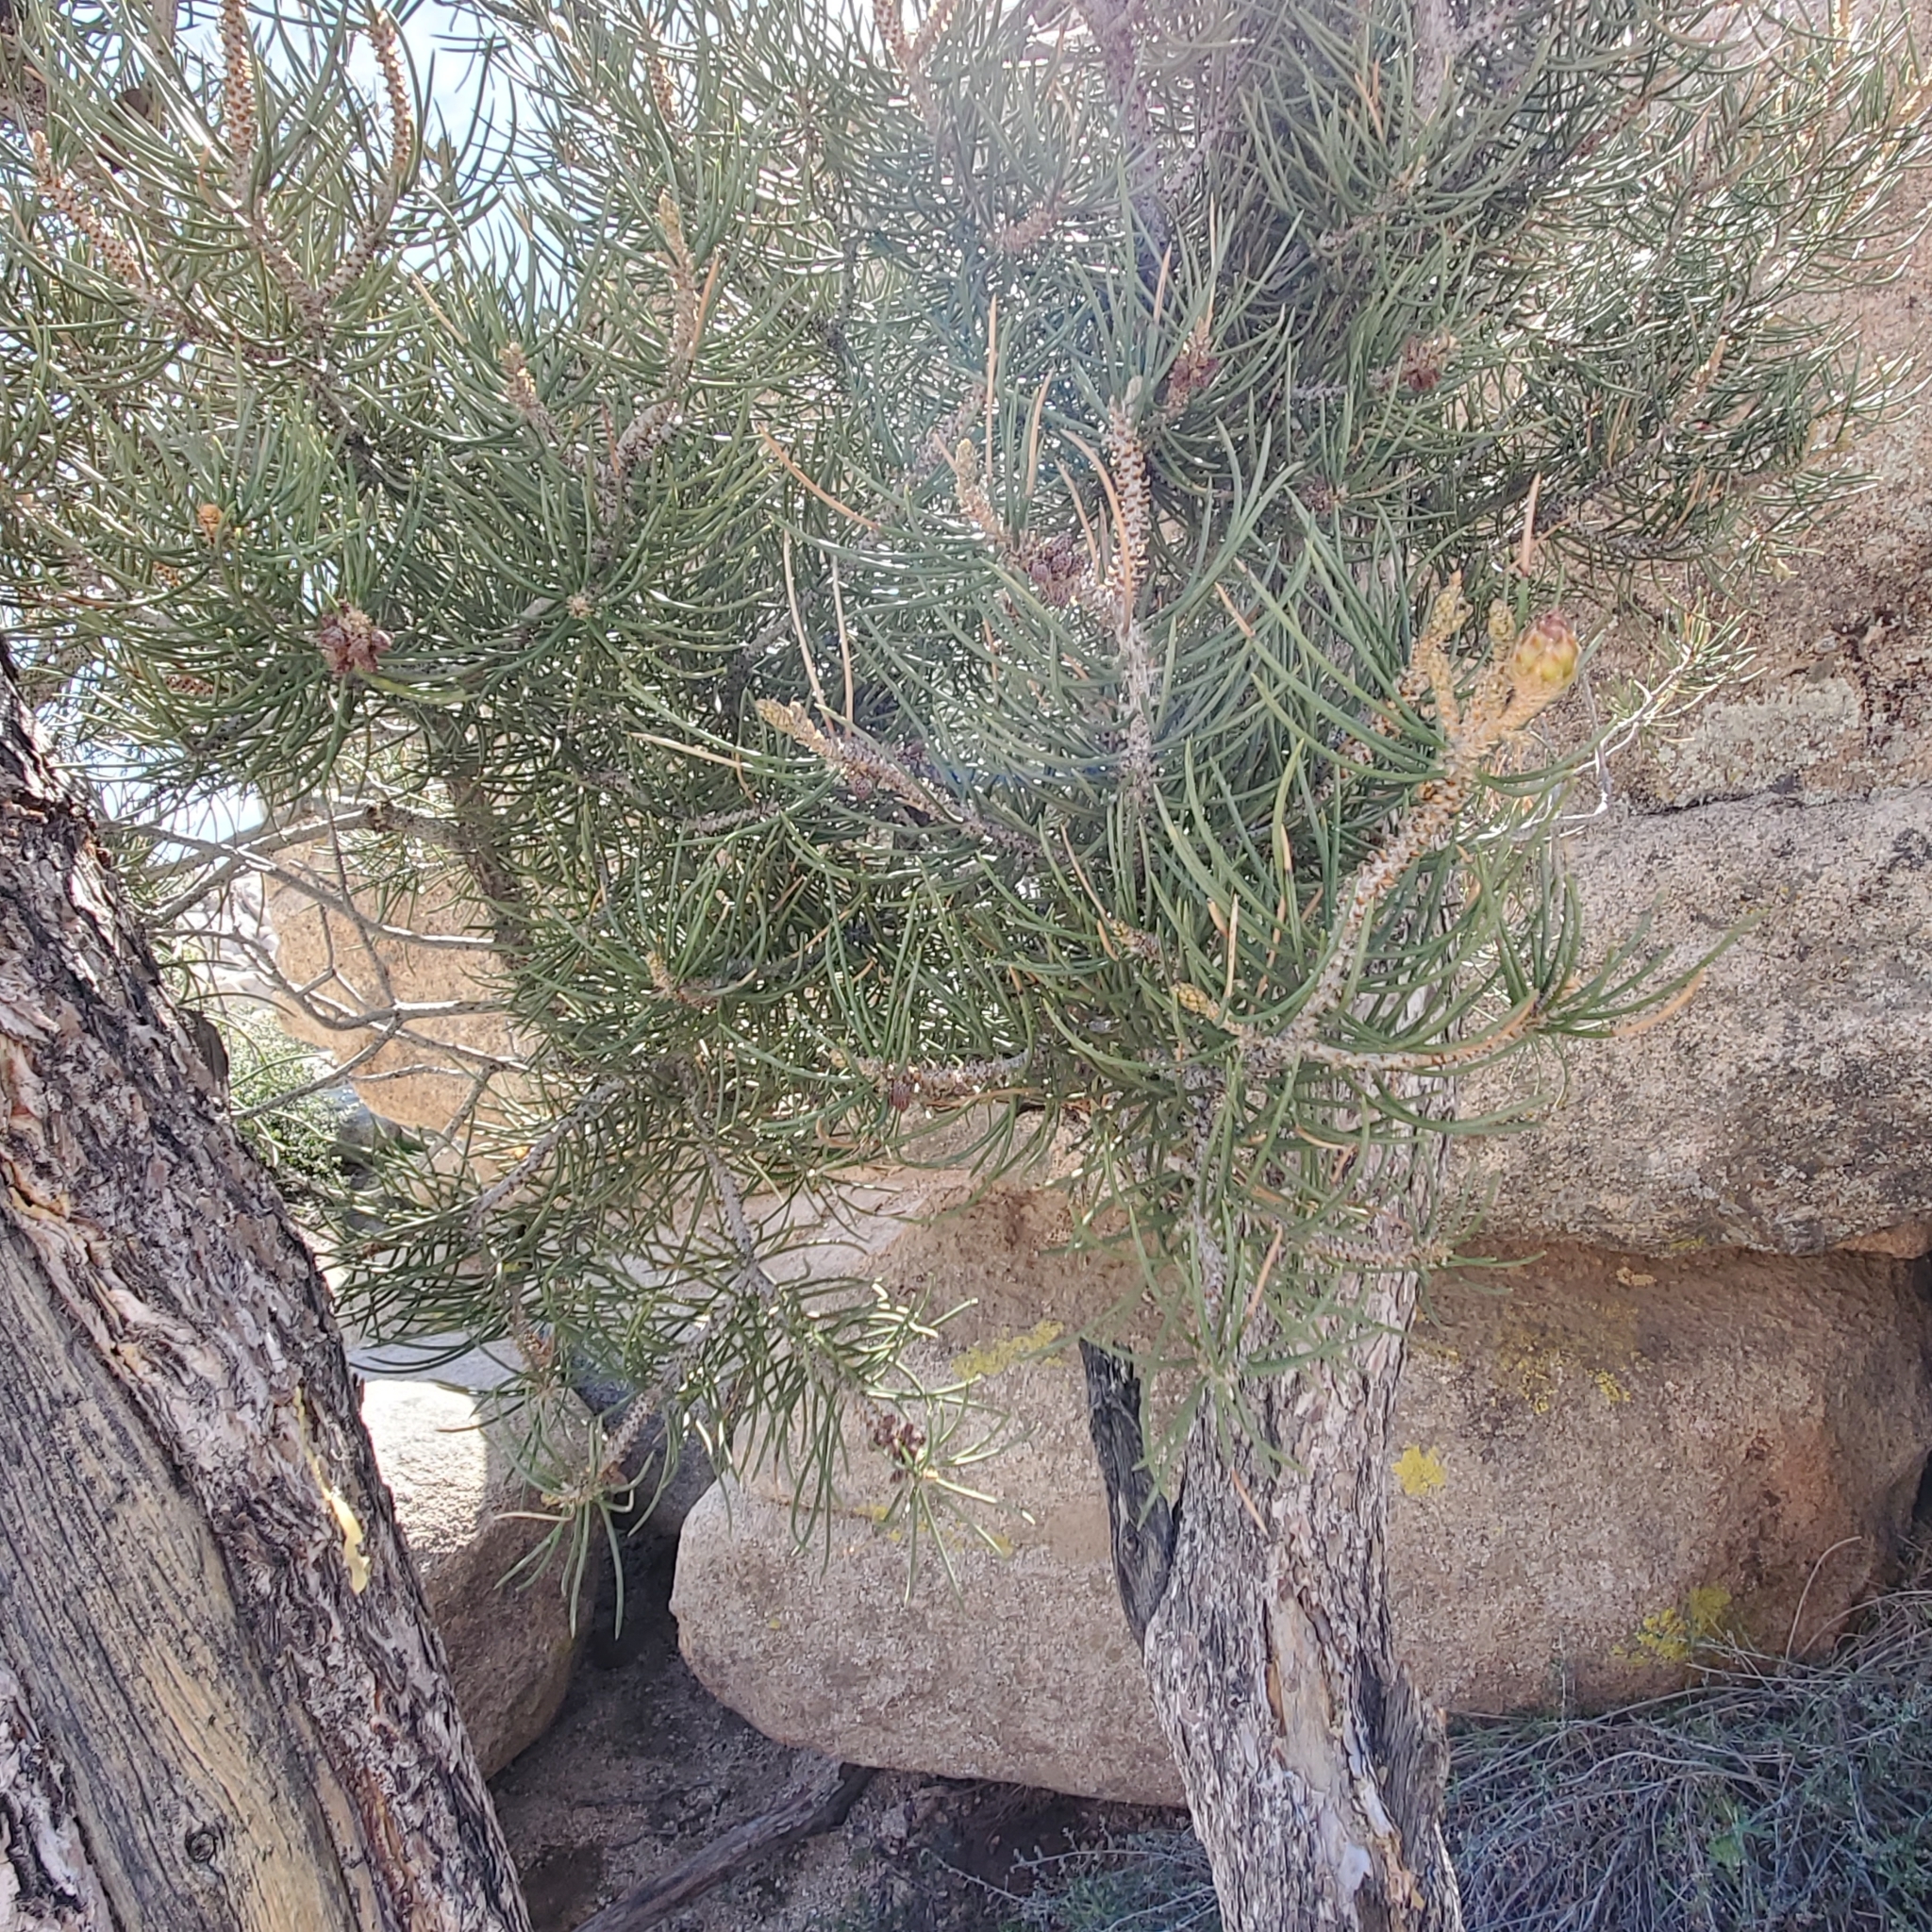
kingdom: Plantae
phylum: Tracheophyta
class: Pinopsida
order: Pinales
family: Pinaceae
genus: Pinus
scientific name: Pinus monophylla
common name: One-leaved nut pine
